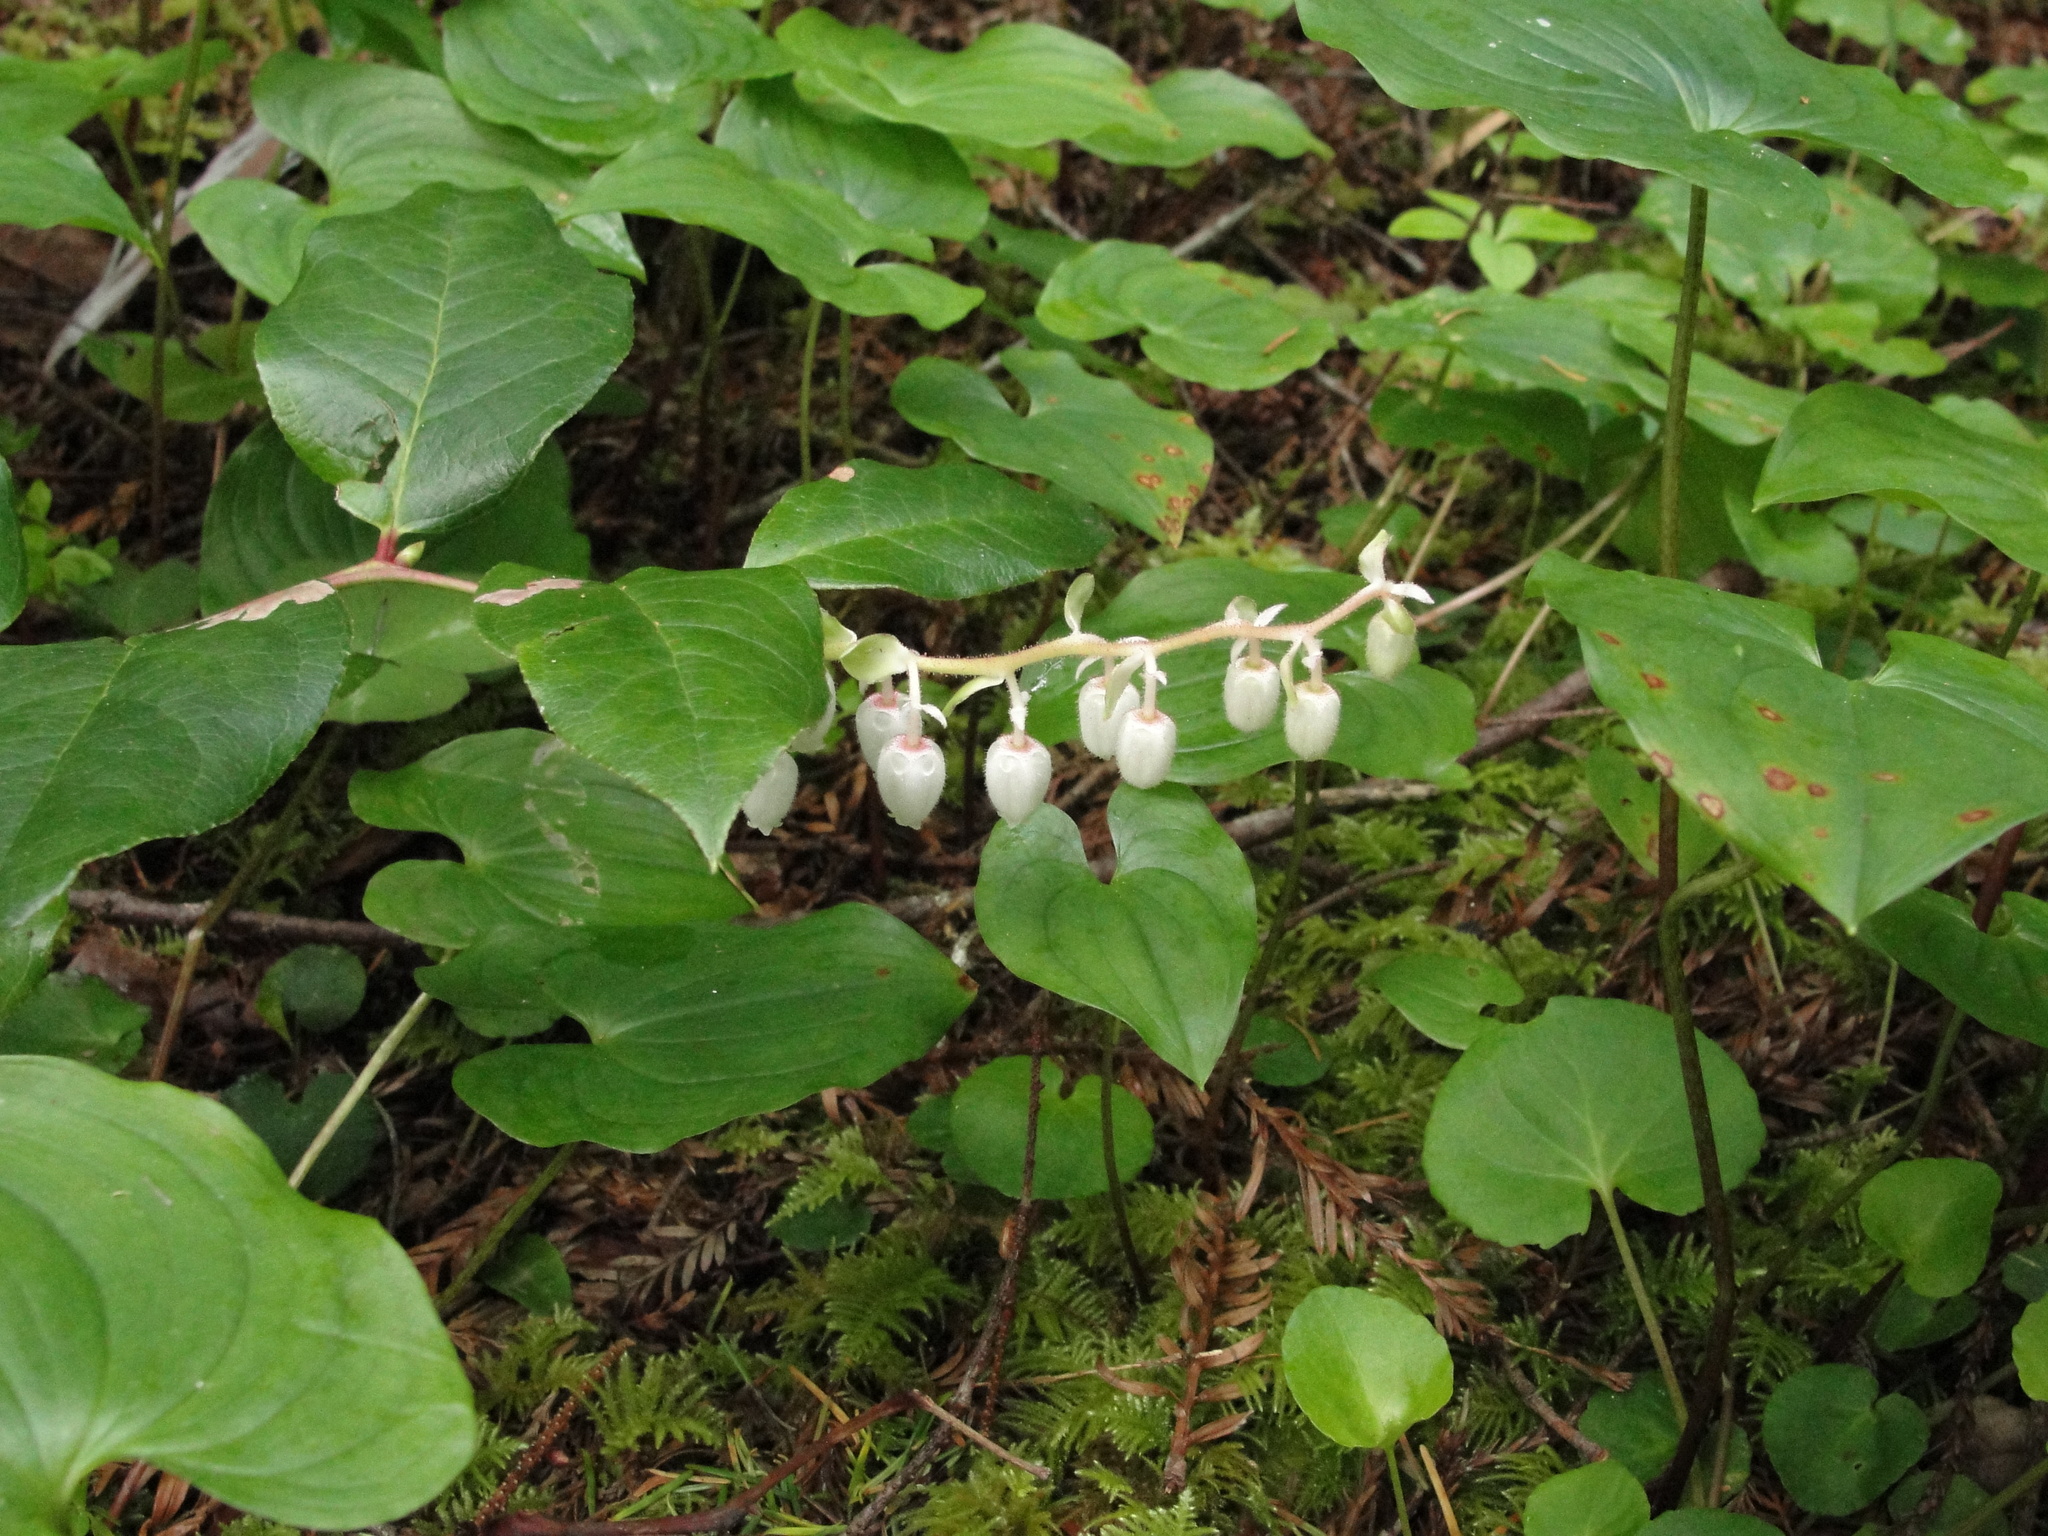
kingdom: Plantae
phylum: Tracheophyta
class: Magnoliopsida
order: Ericales
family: Ericaceae
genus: Gaultheria
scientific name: Gaultheria shallon
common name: Shallon
